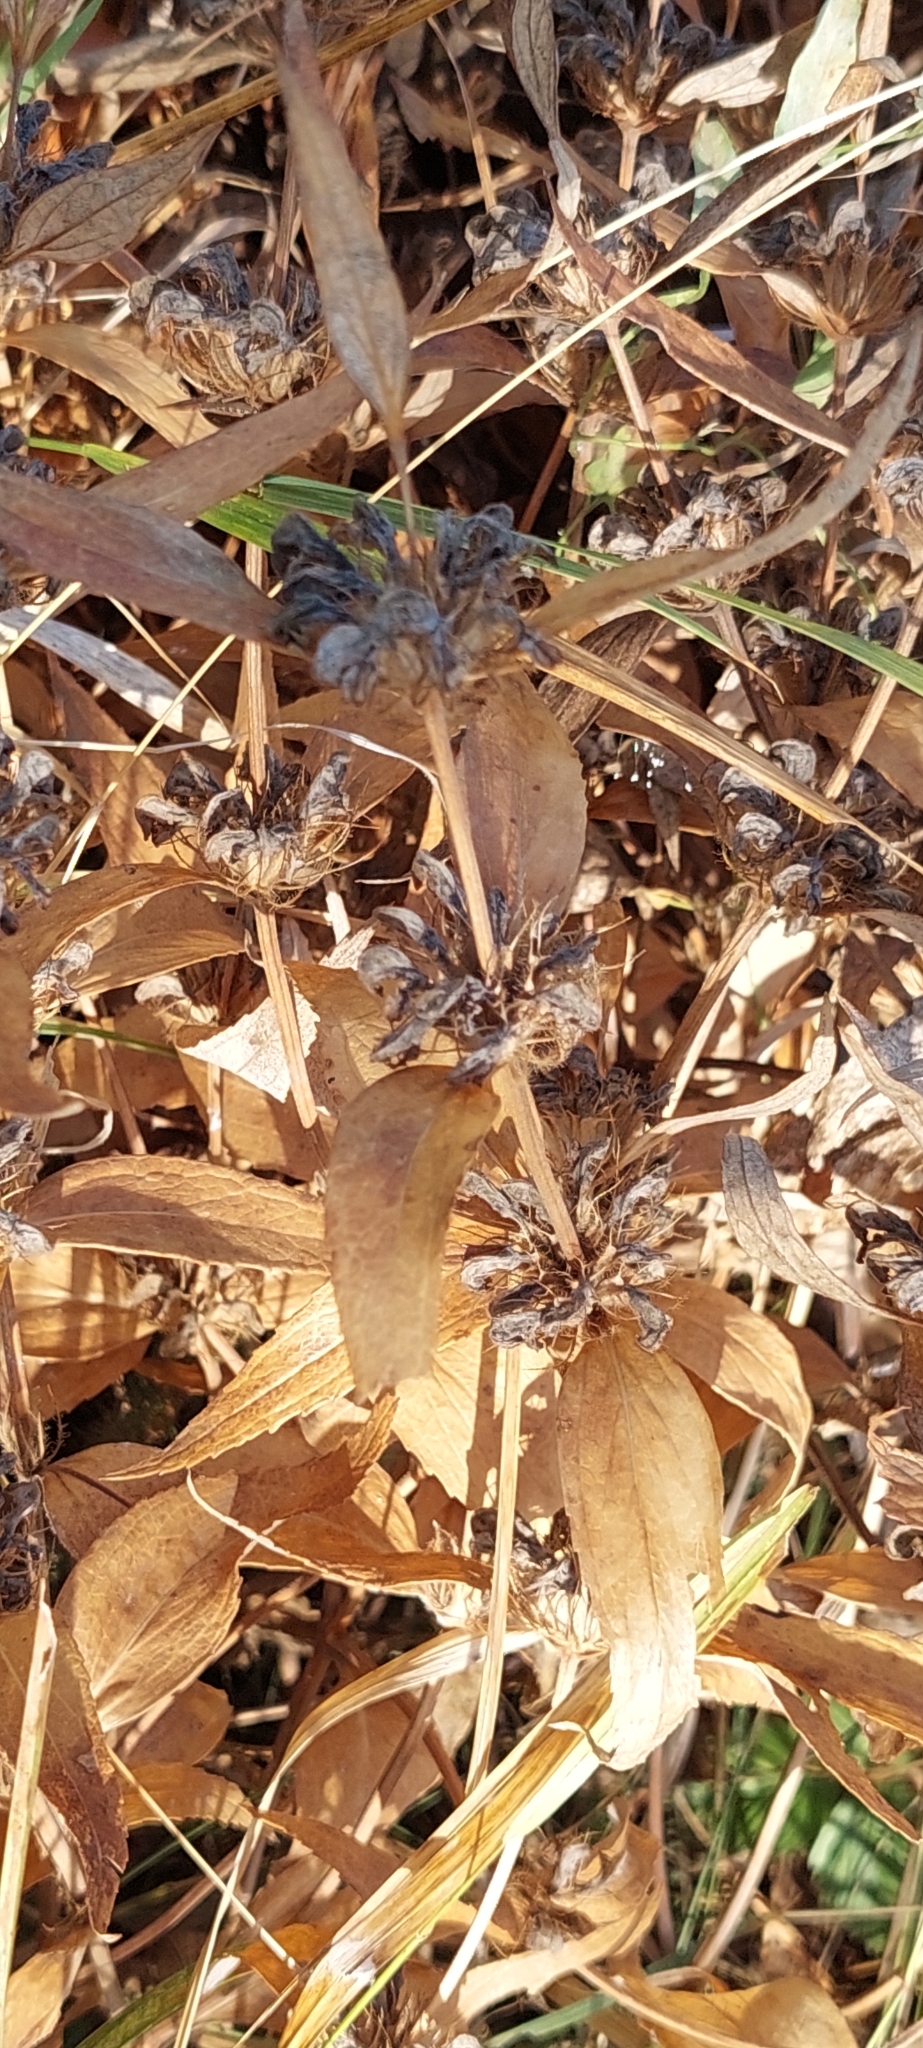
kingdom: Plantae
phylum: Tracheophyta
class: Magnoliopsida
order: Lamiales
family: Lamiaceae
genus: Phlomis
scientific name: Phlomis herba-venti
